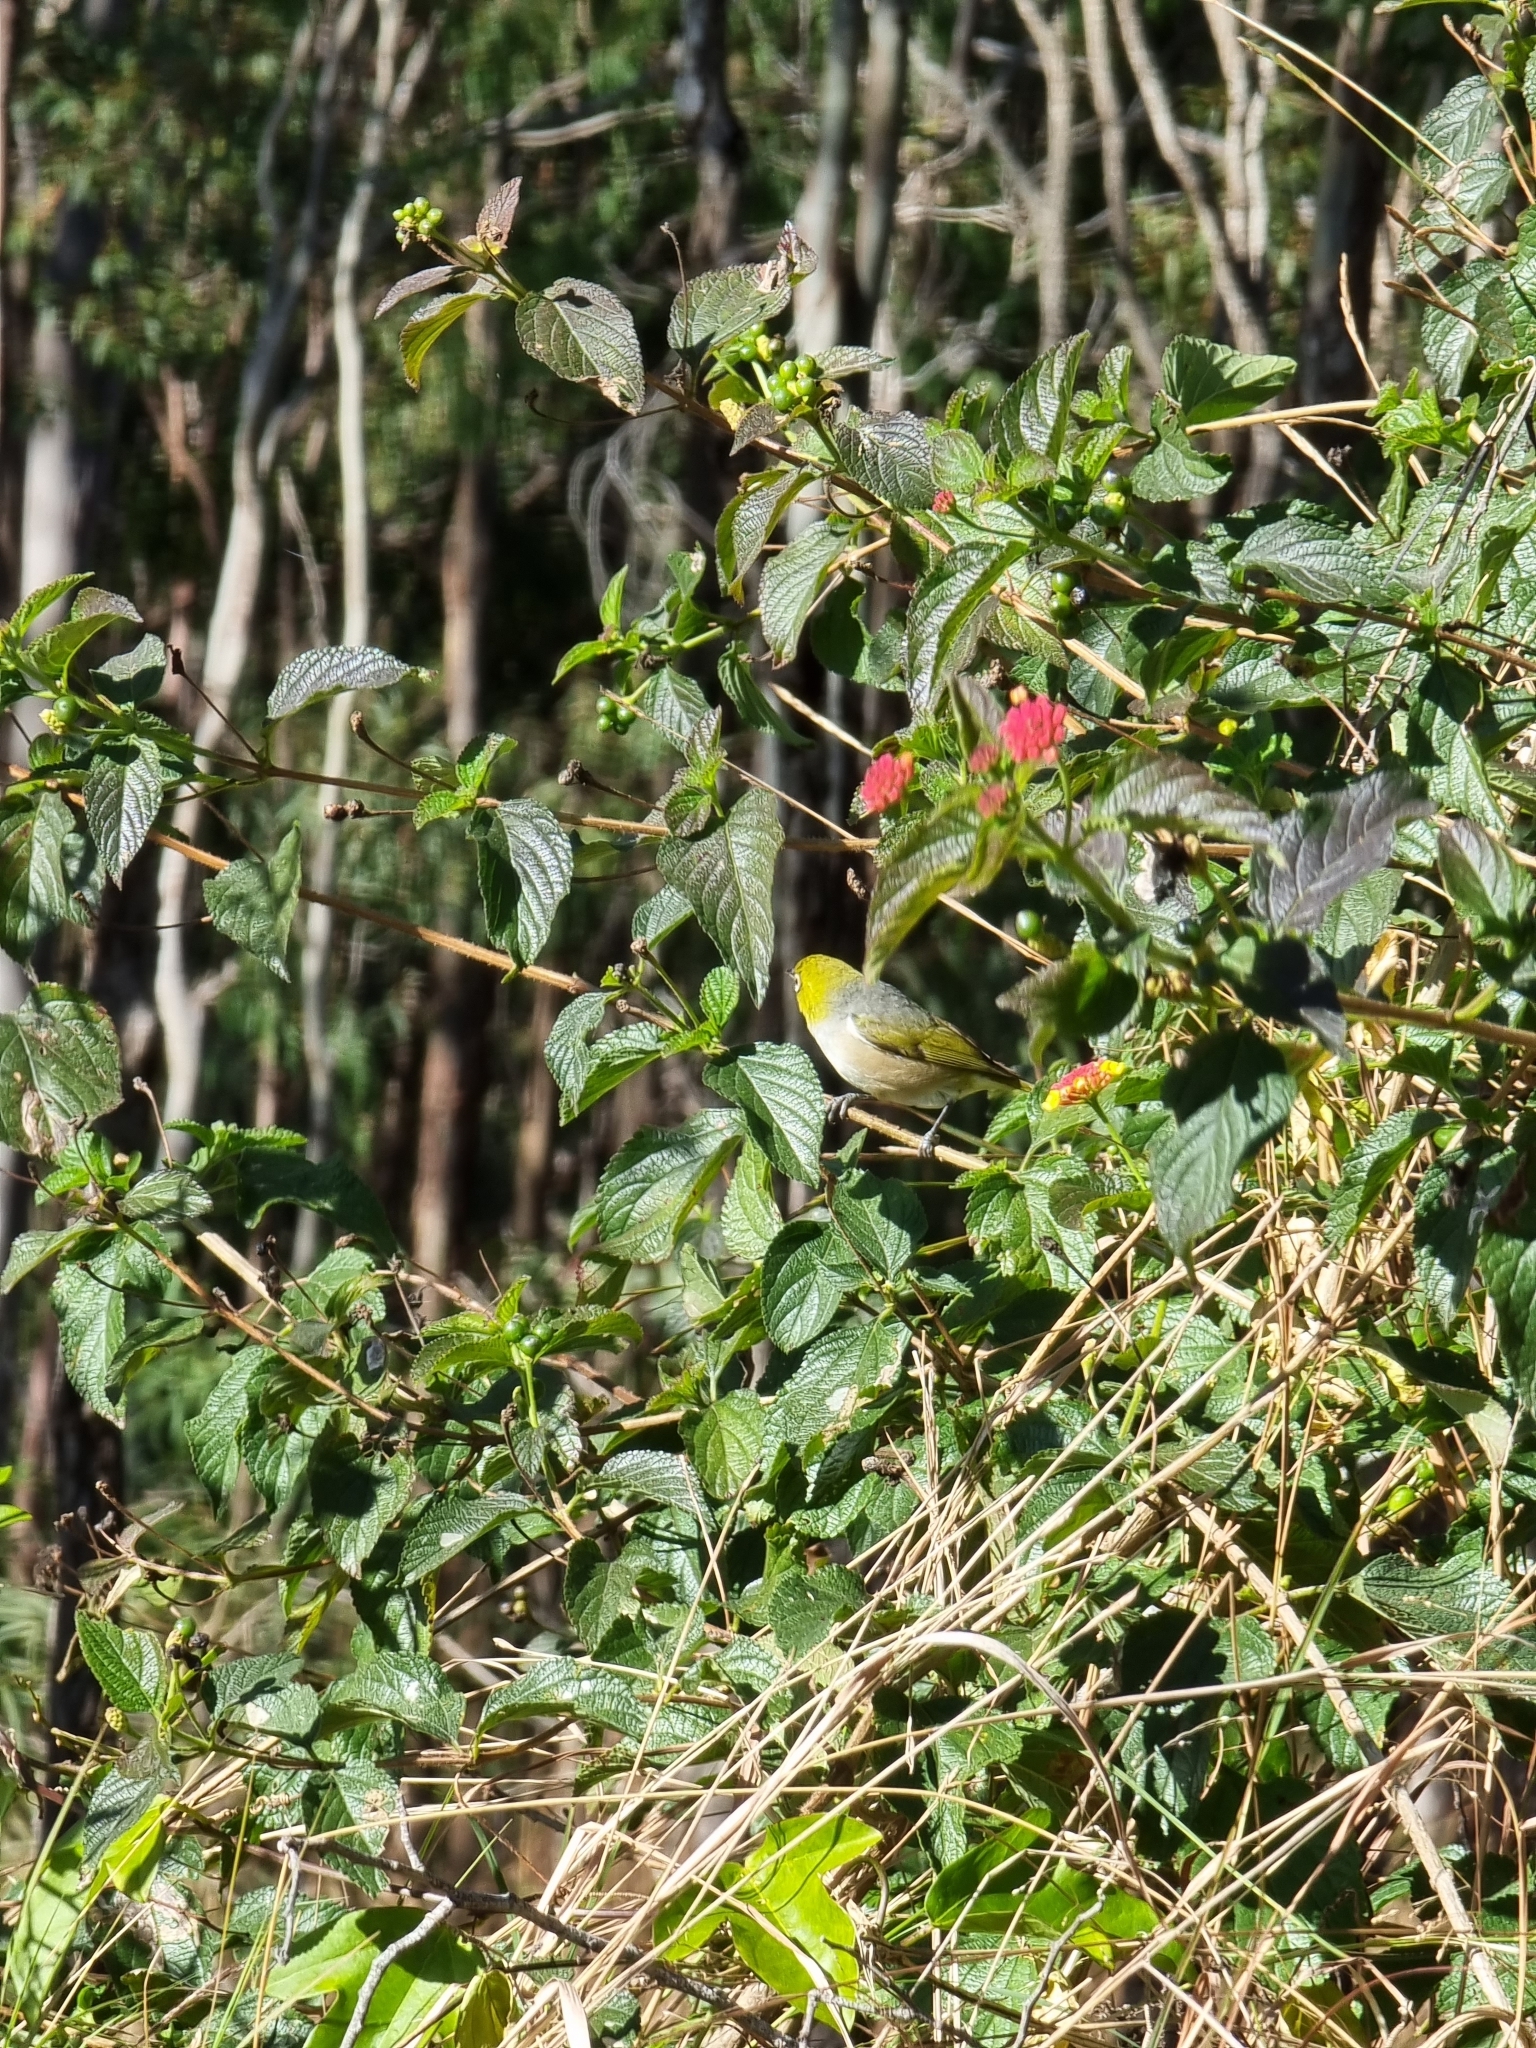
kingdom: Animalia
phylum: Chordata
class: Aves
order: Passeriformes
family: Zosteropidae
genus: Zosterops
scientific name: Zosterops lateralis
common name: Silvereye
